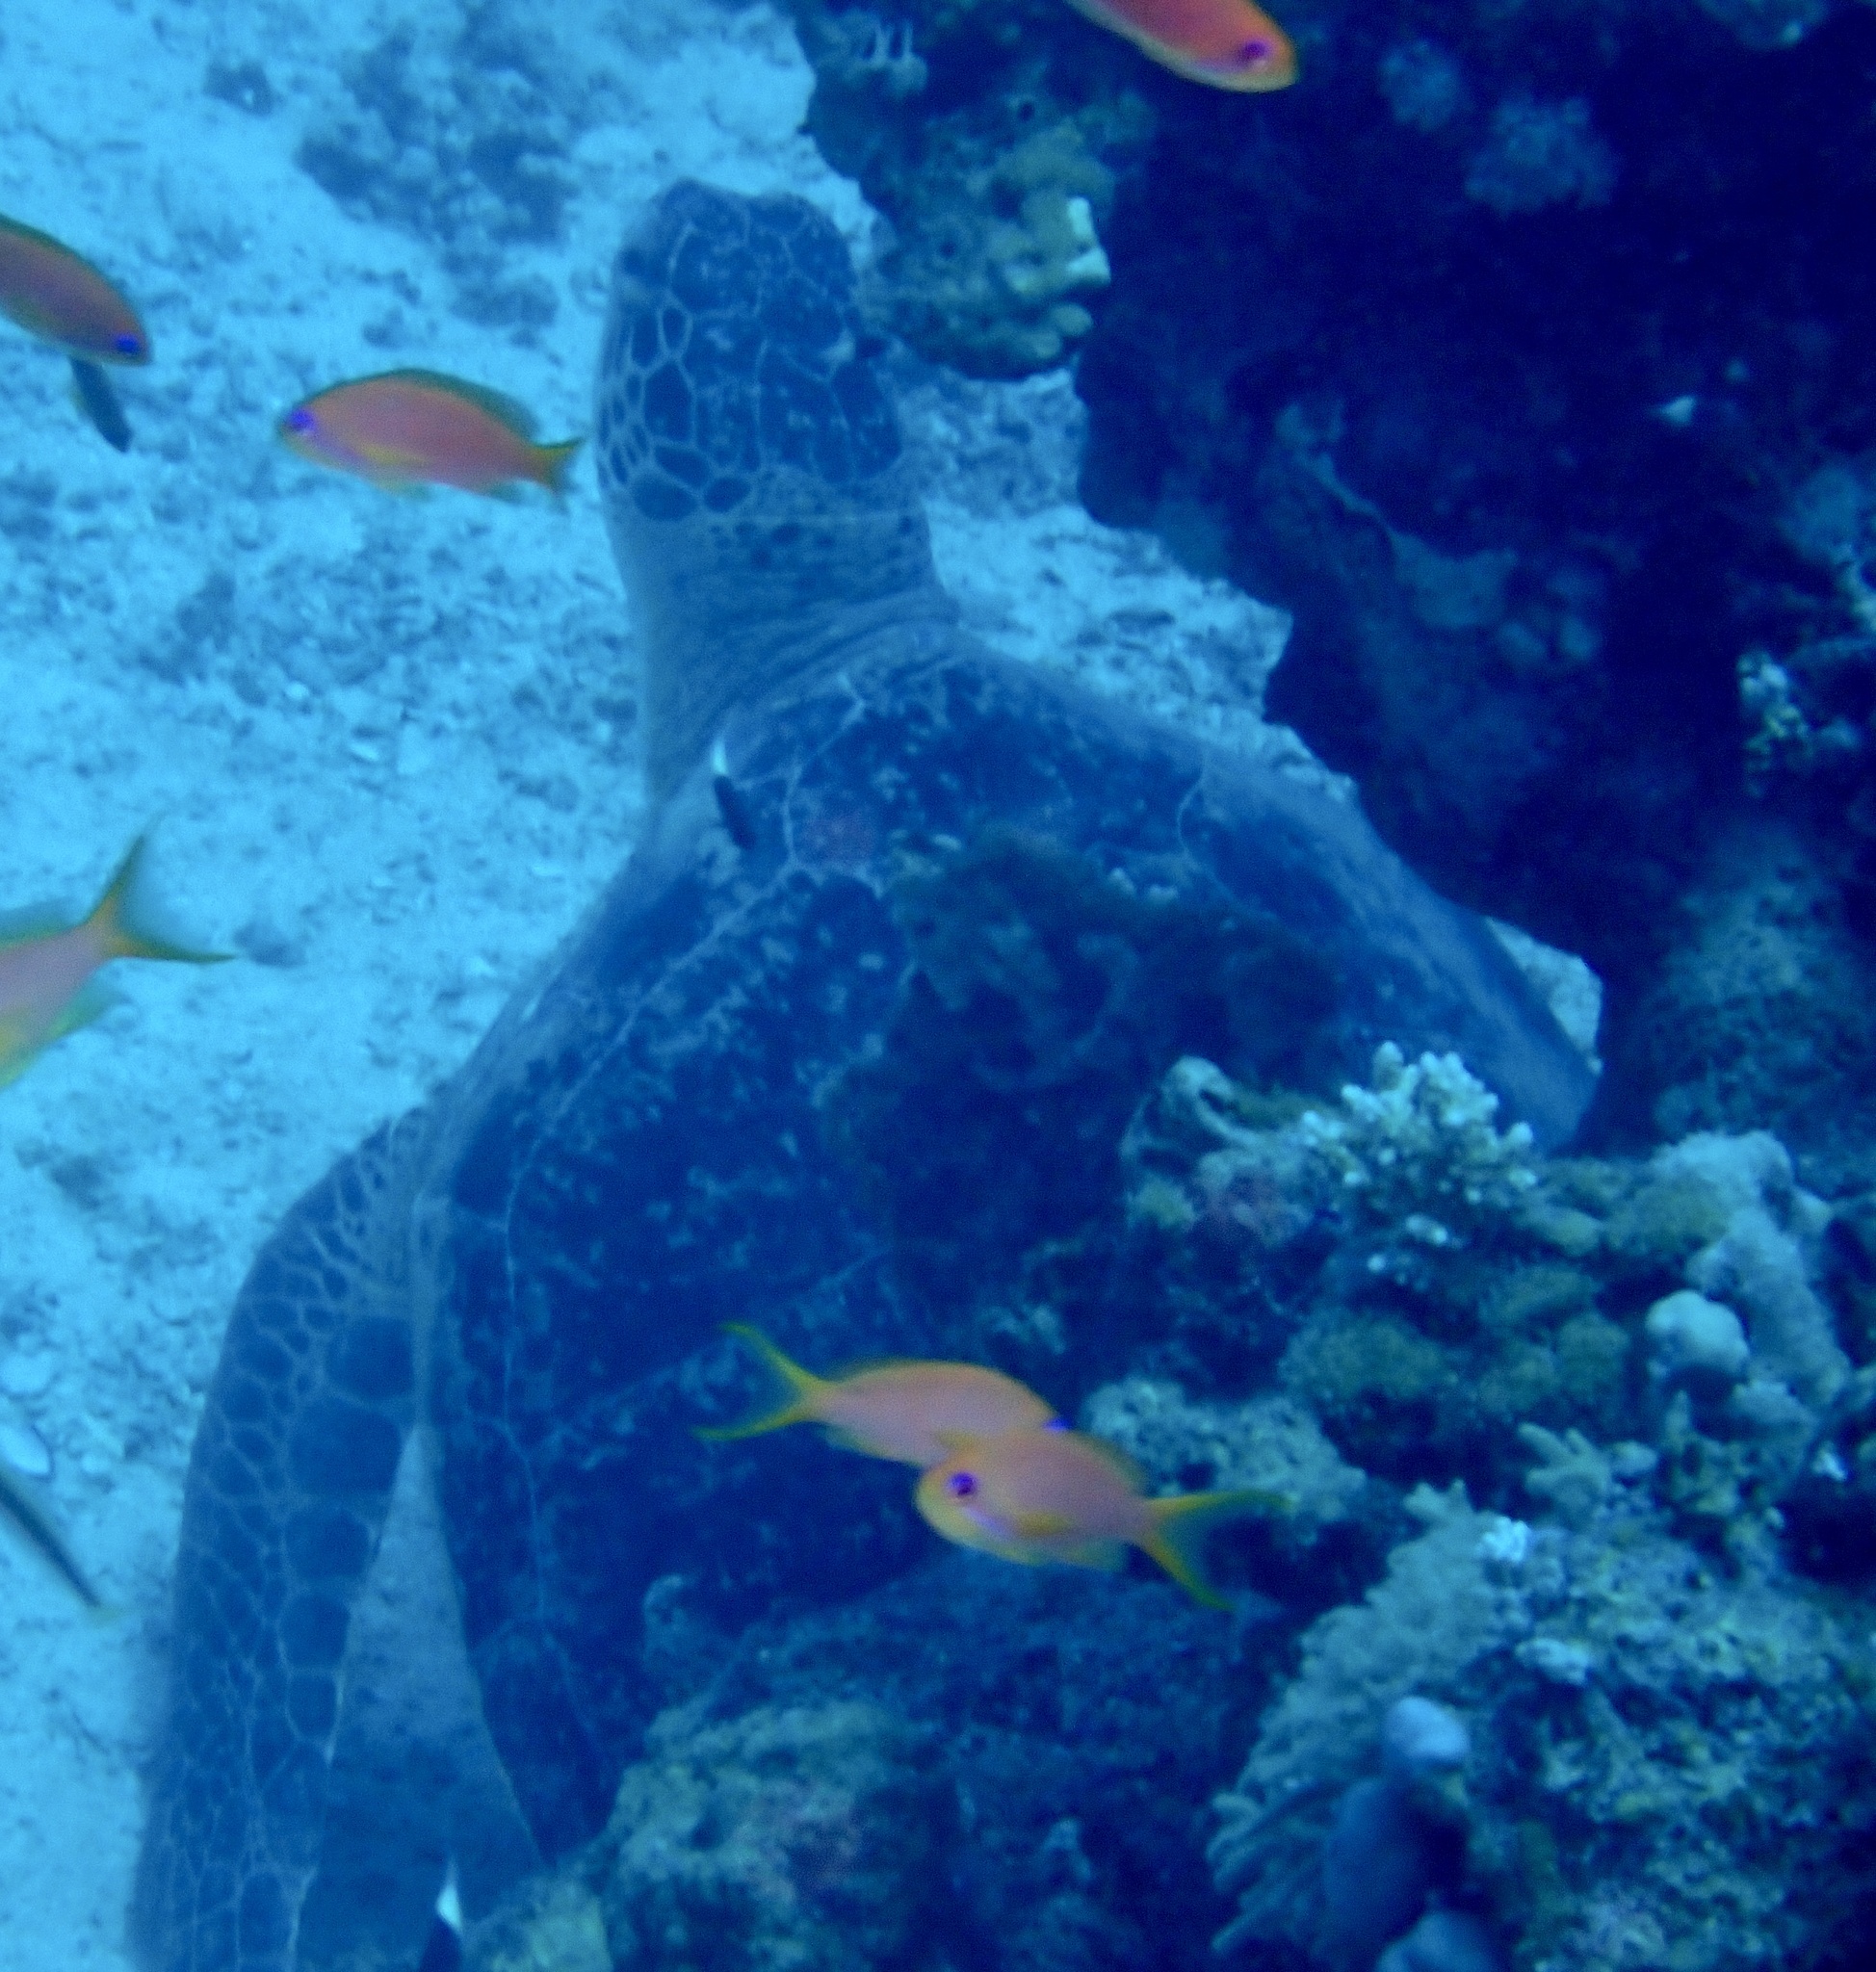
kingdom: Animalia
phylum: Chordata
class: Testudines
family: Cheloniidae
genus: Chelonia
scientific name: Chelonia mydas
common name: Green turtle
